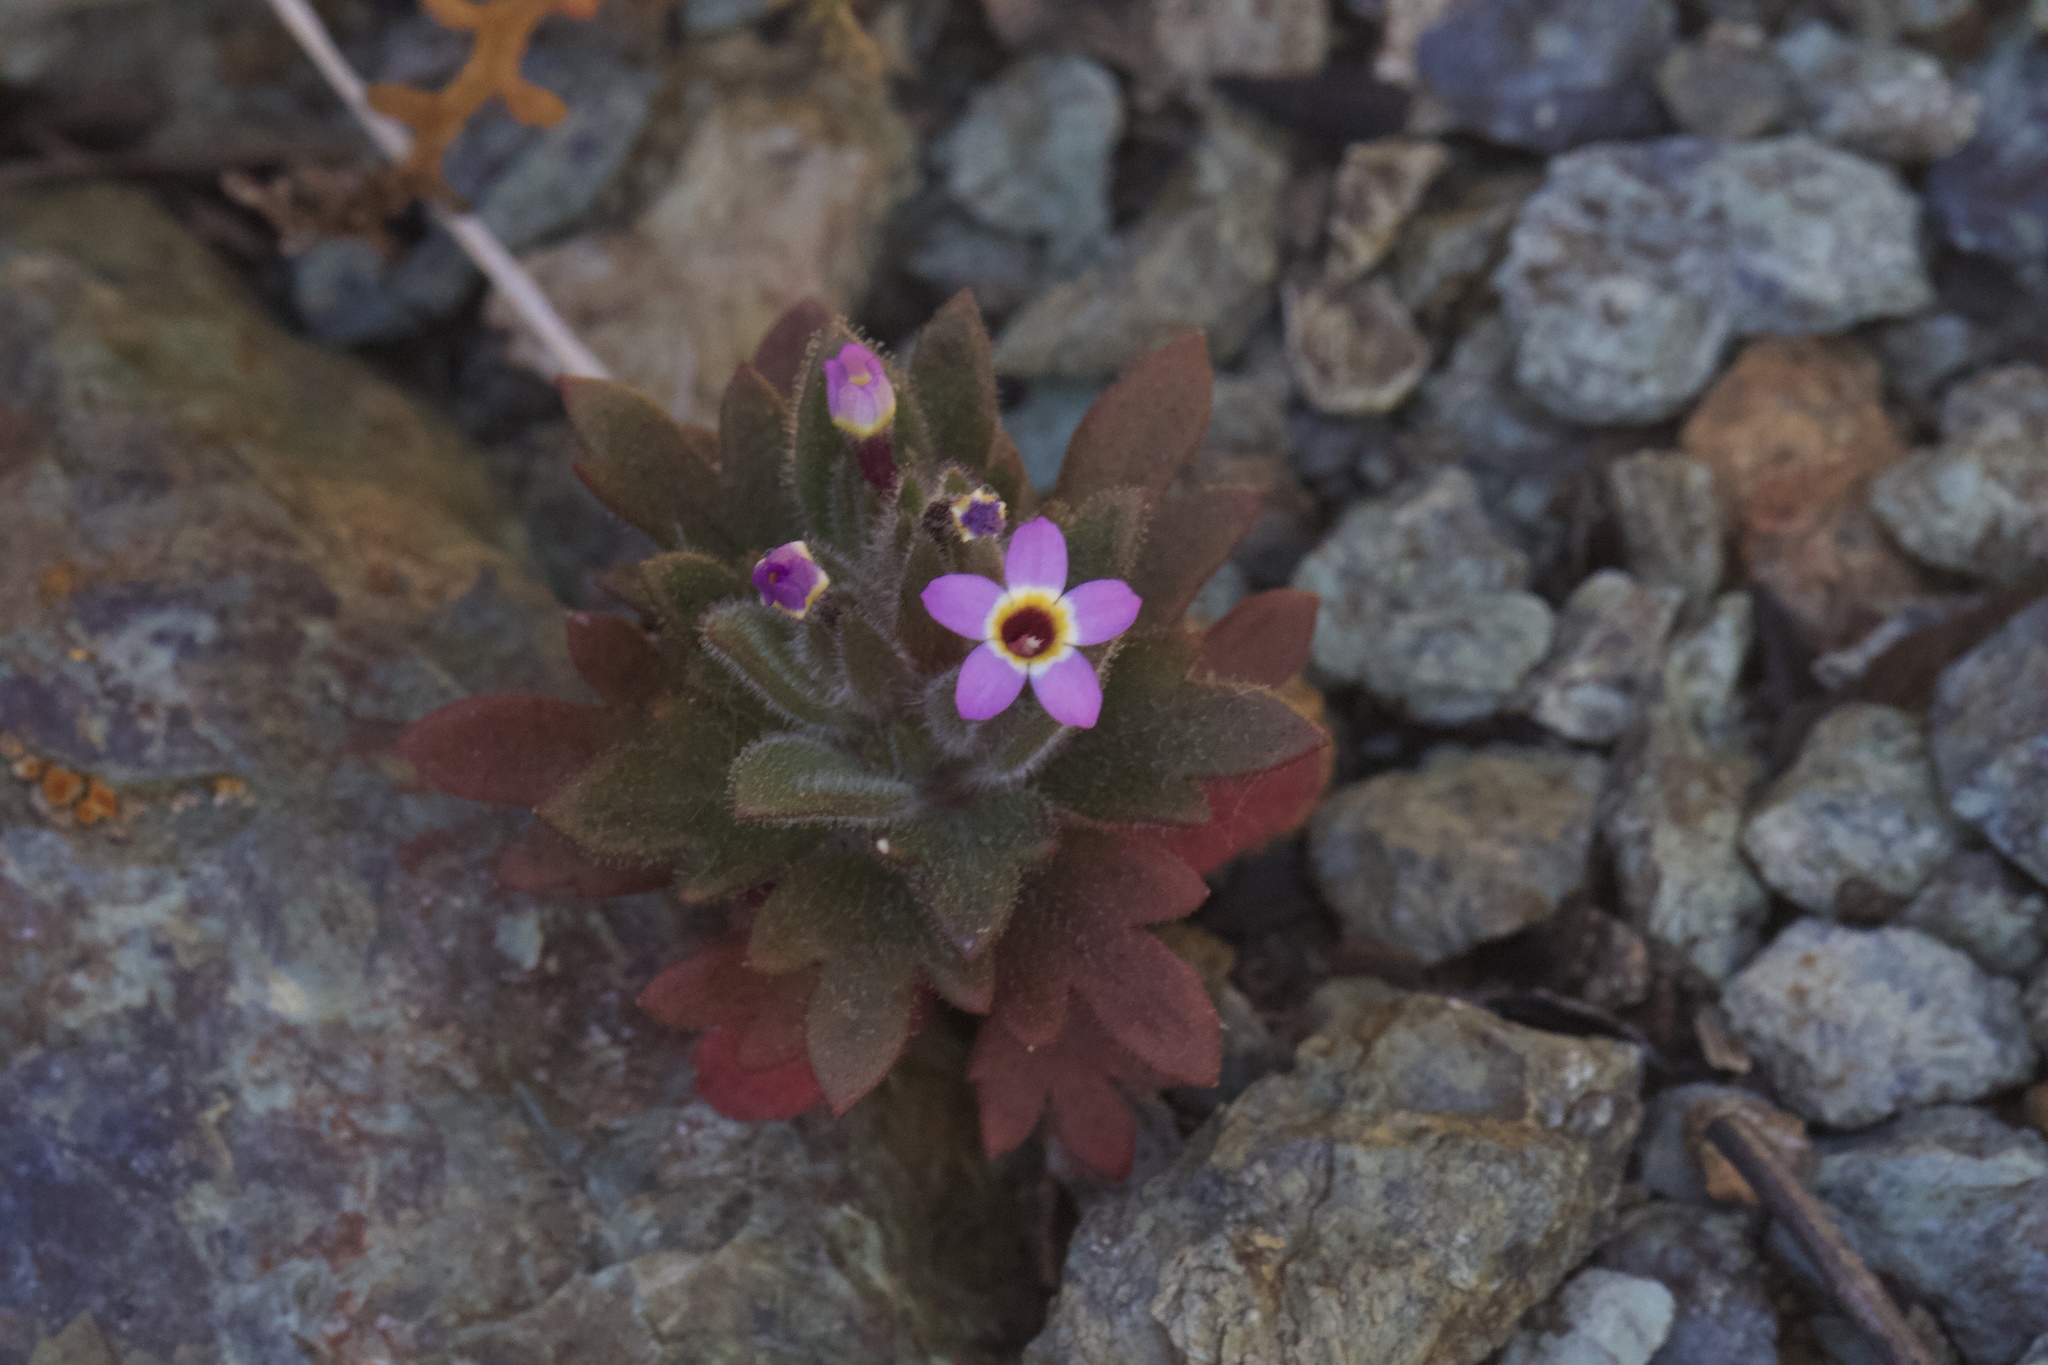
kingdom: Plantae
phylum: Tracheophyta
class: Magnoliopsida
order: Ericales
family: Polemoniaceae
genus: Collomia
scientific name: Collomia diversifolia
